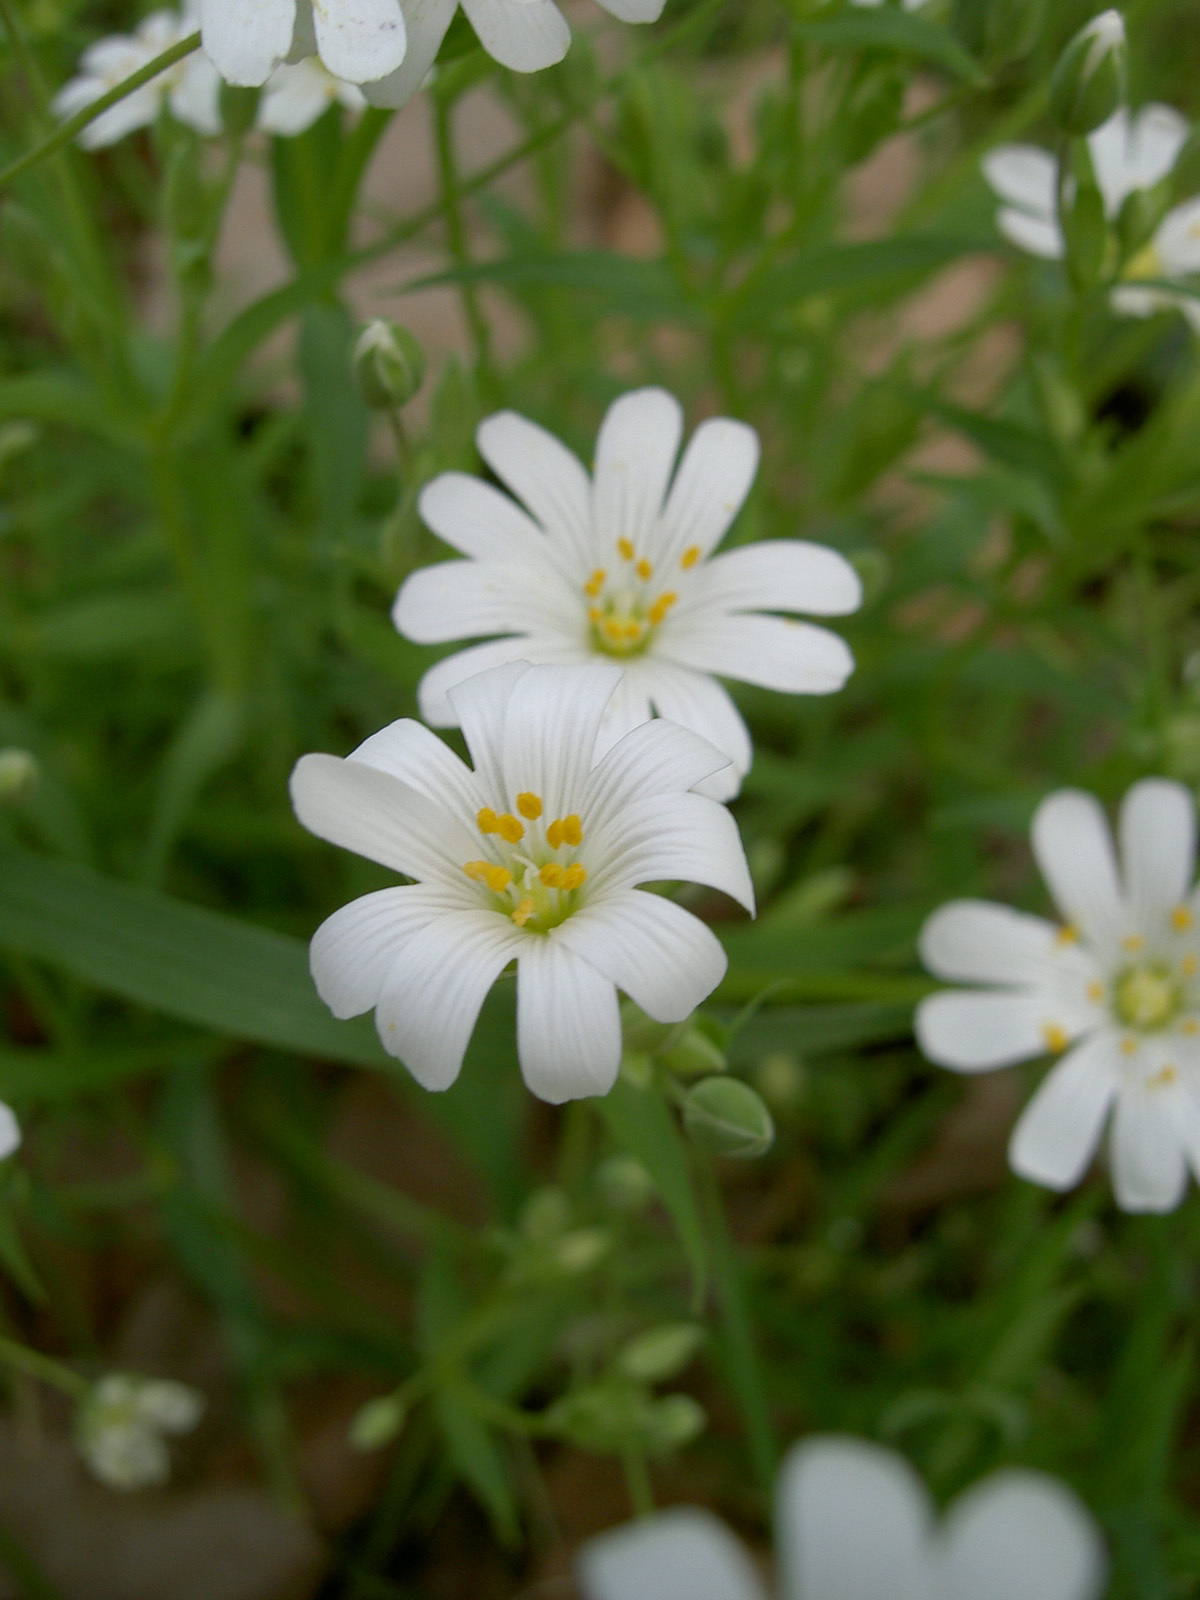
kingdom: Plantae
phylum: Tracheophyta
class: Magnoliopsida
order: Caryophyllales
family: Caryophyllaceae
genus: Rabelera
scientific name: Rabelera holostea
